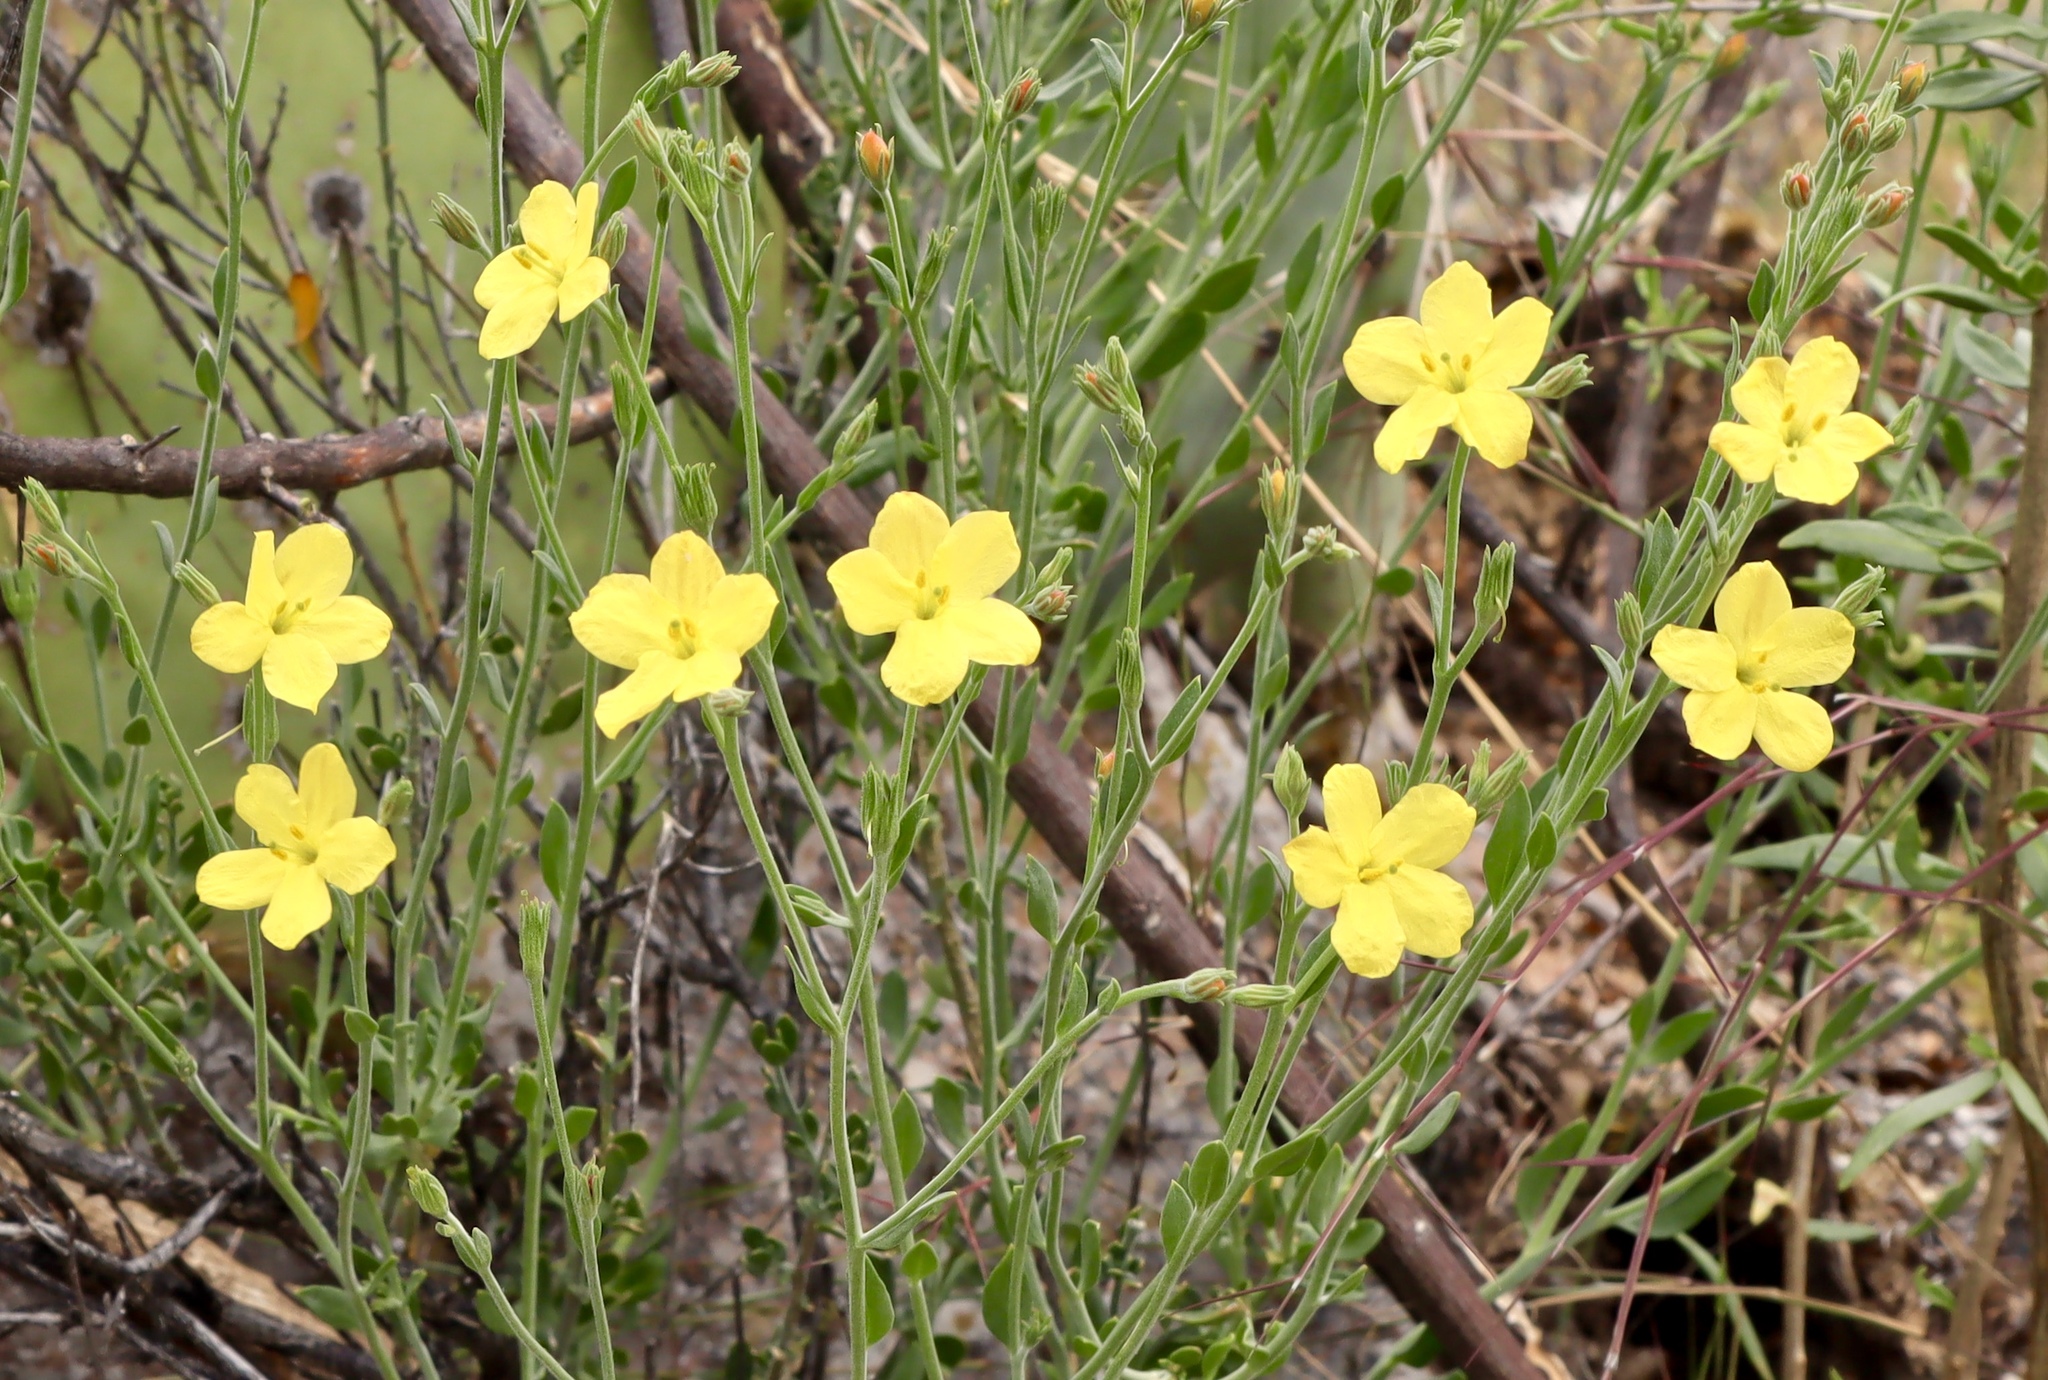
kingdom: Plantae
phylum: Tracheophyta
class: Magnoliopsida
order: Lamiales
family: Oleaceae
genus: Menodora
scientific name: Menodora scabra
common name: Rough menodora
